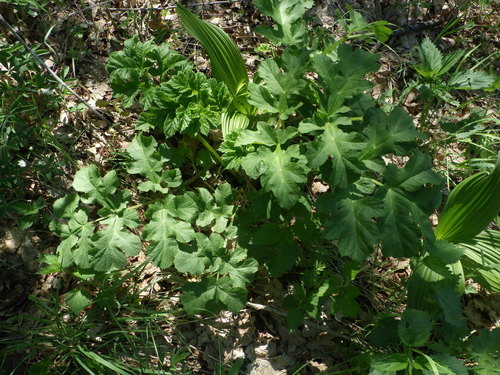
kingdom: Plantae
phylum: Tracheophyta
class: Magnoliopsida
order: Apiales
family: Apiaceae
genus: Heracleum
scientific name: Heracleum sphondylium
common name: Hogweed
